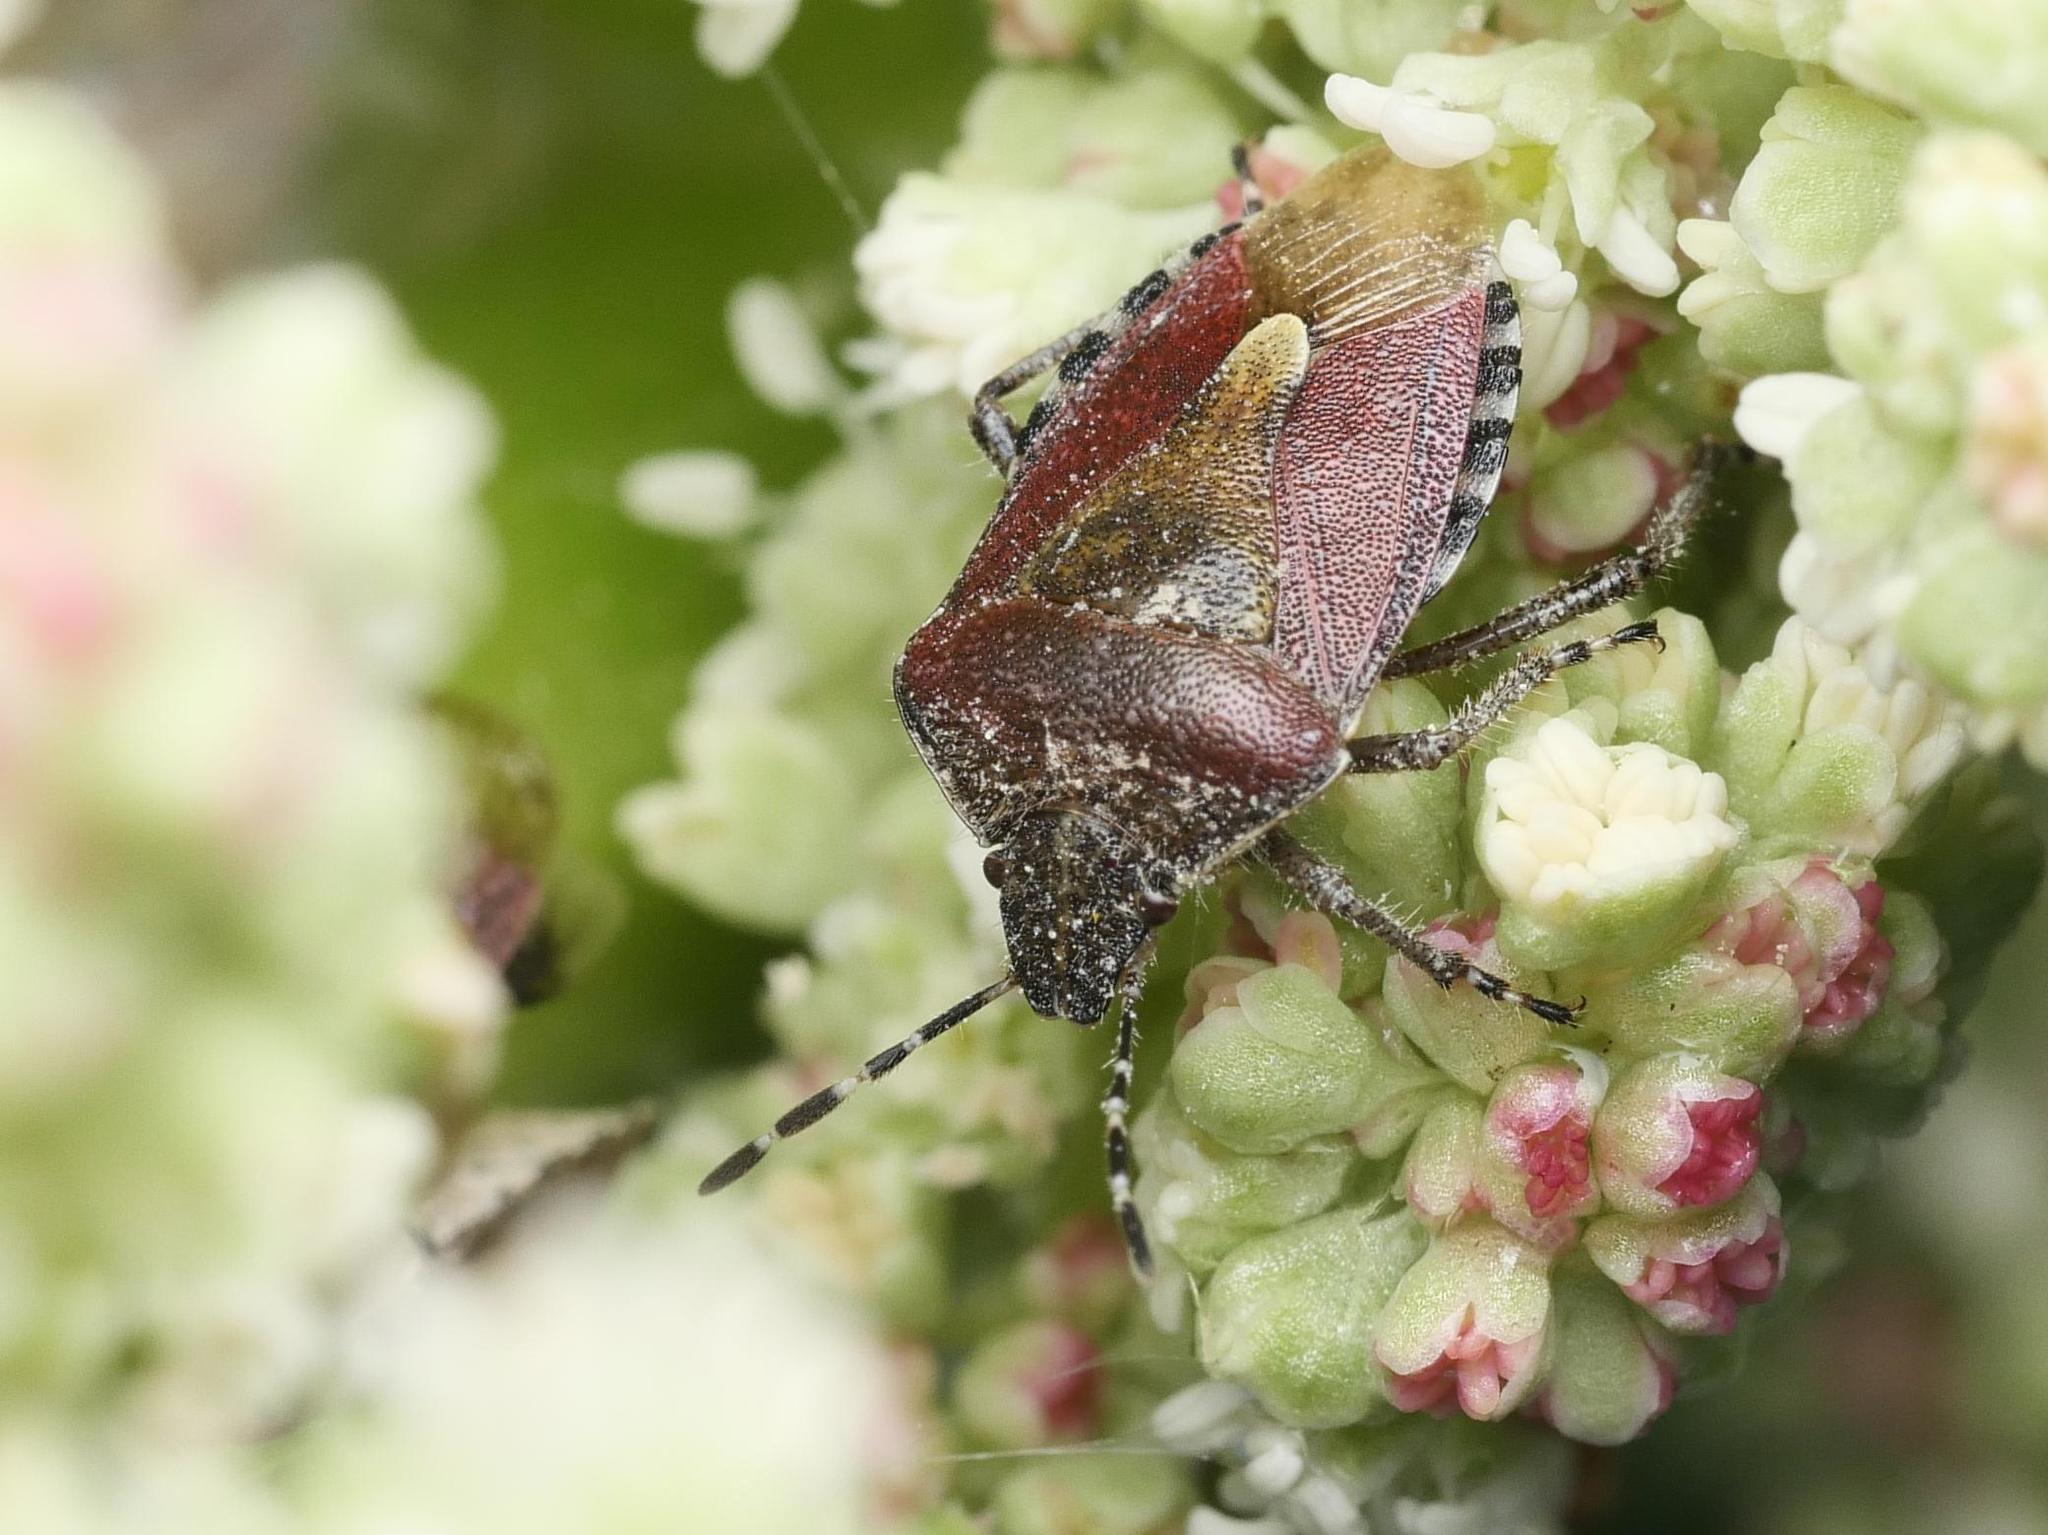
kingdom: Animalia
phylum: Arthropoda
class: Insecta
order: Hemiptera
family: Pentatomidae
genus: Dolycoris
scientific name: Dolycoris baccarum
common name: Sloe bug
